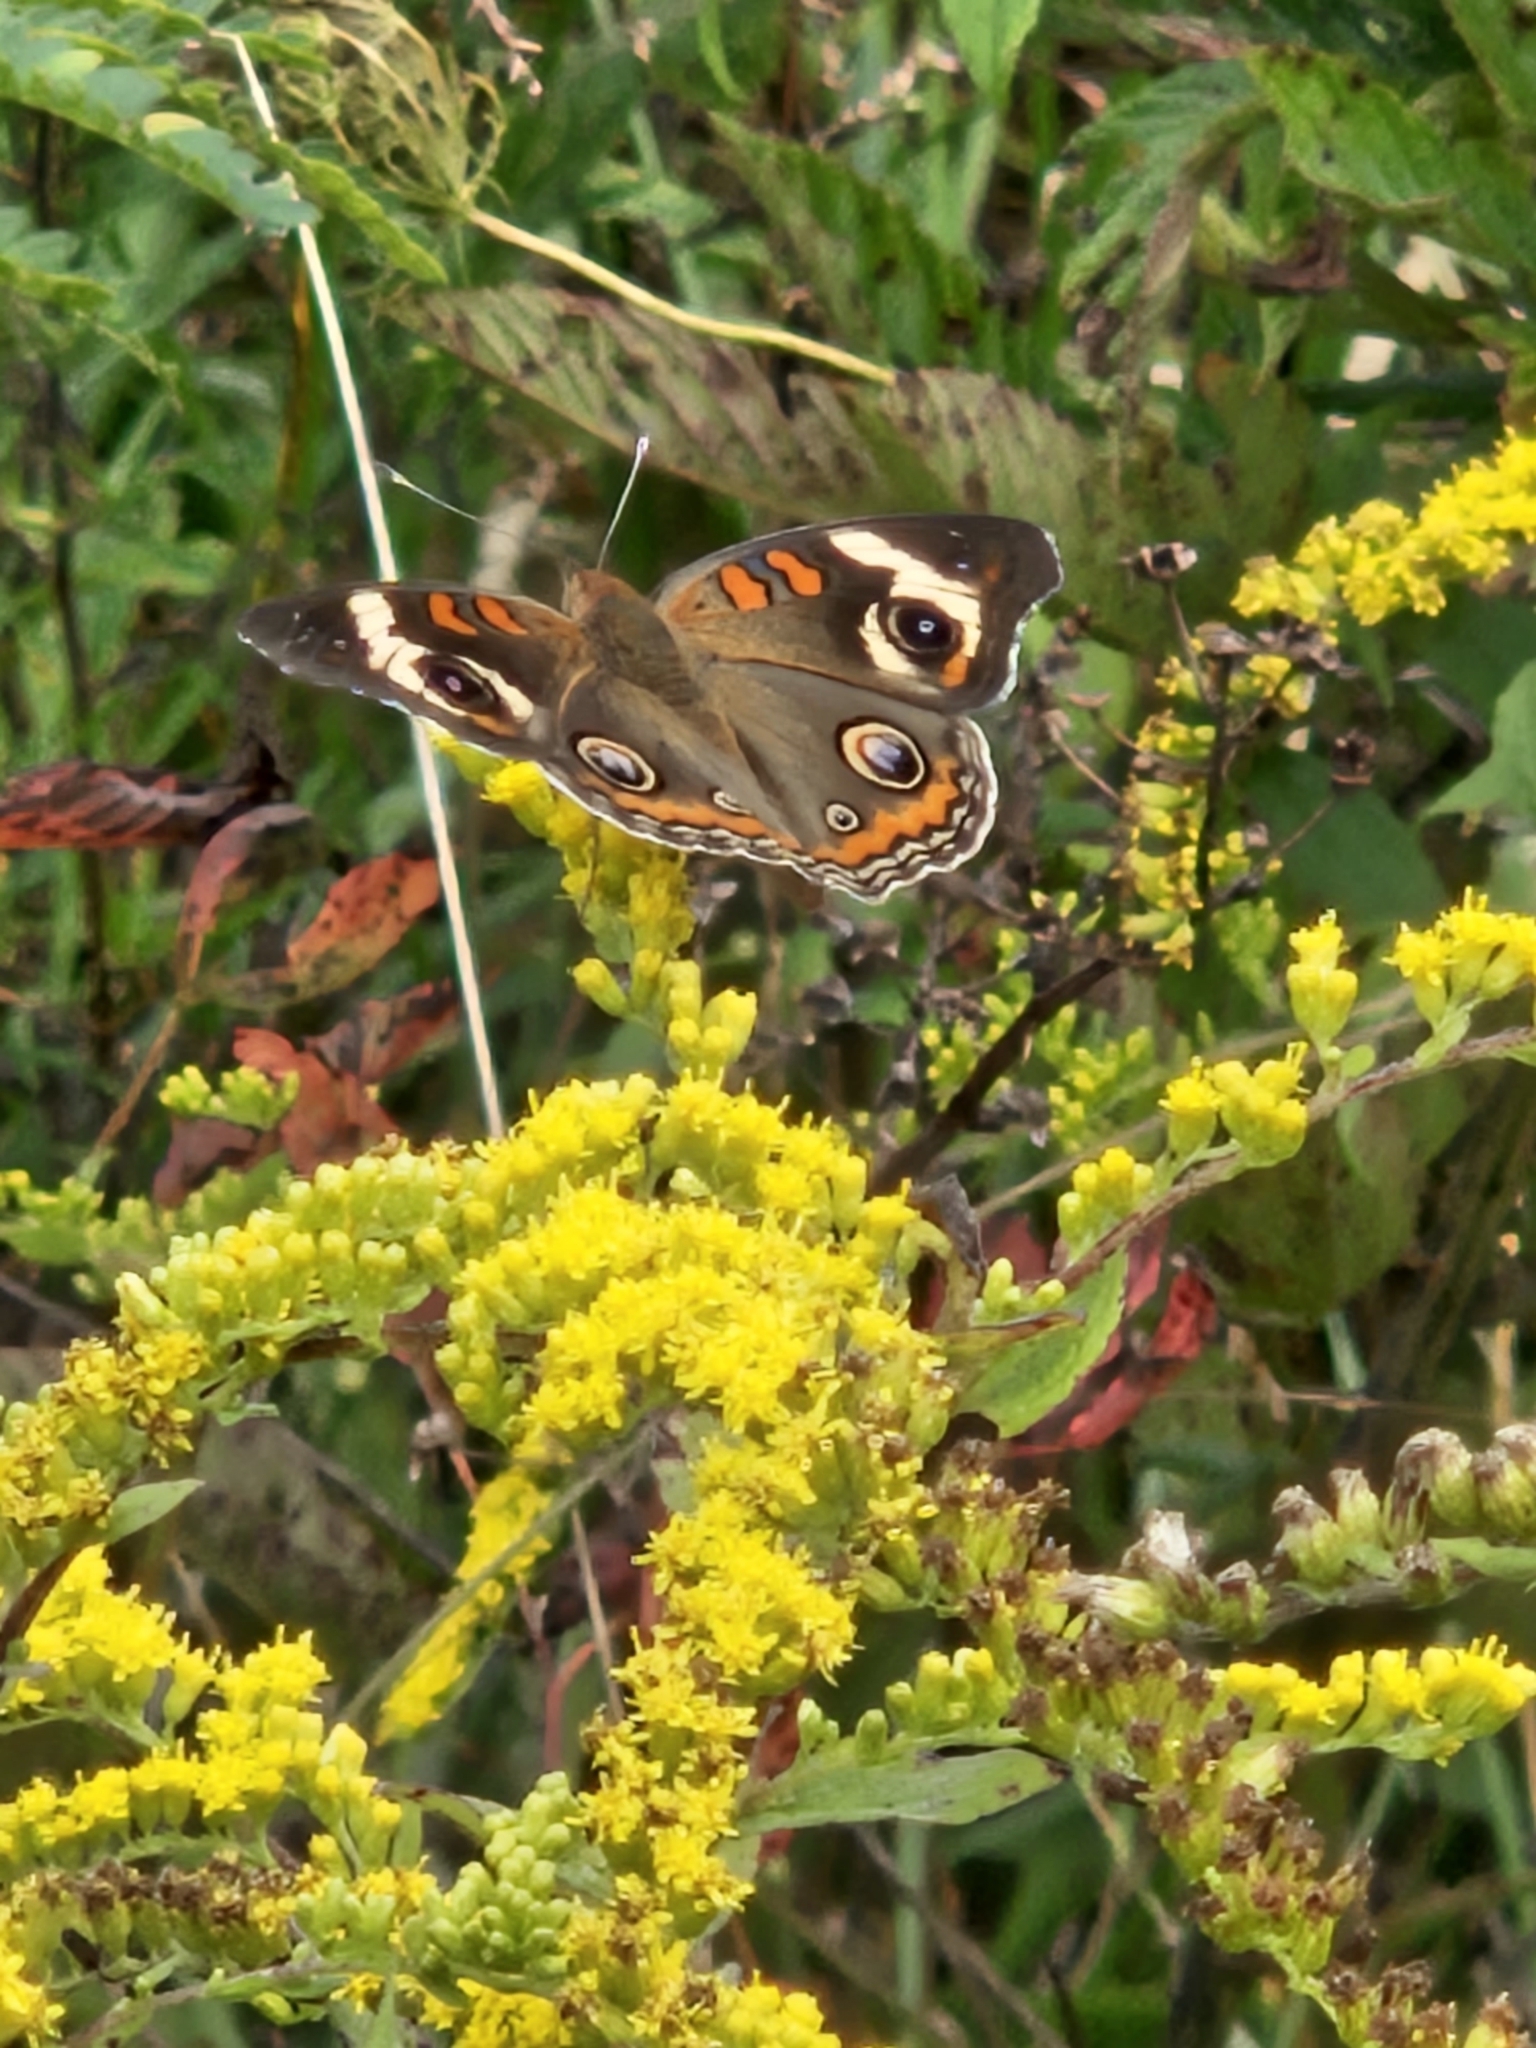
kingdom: Animalia
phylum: Arthropoda
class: Insecta
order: Lepidoptera
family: Nymphalidae
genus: Junonia
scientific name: Junonia coenia
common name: Common buckeye
